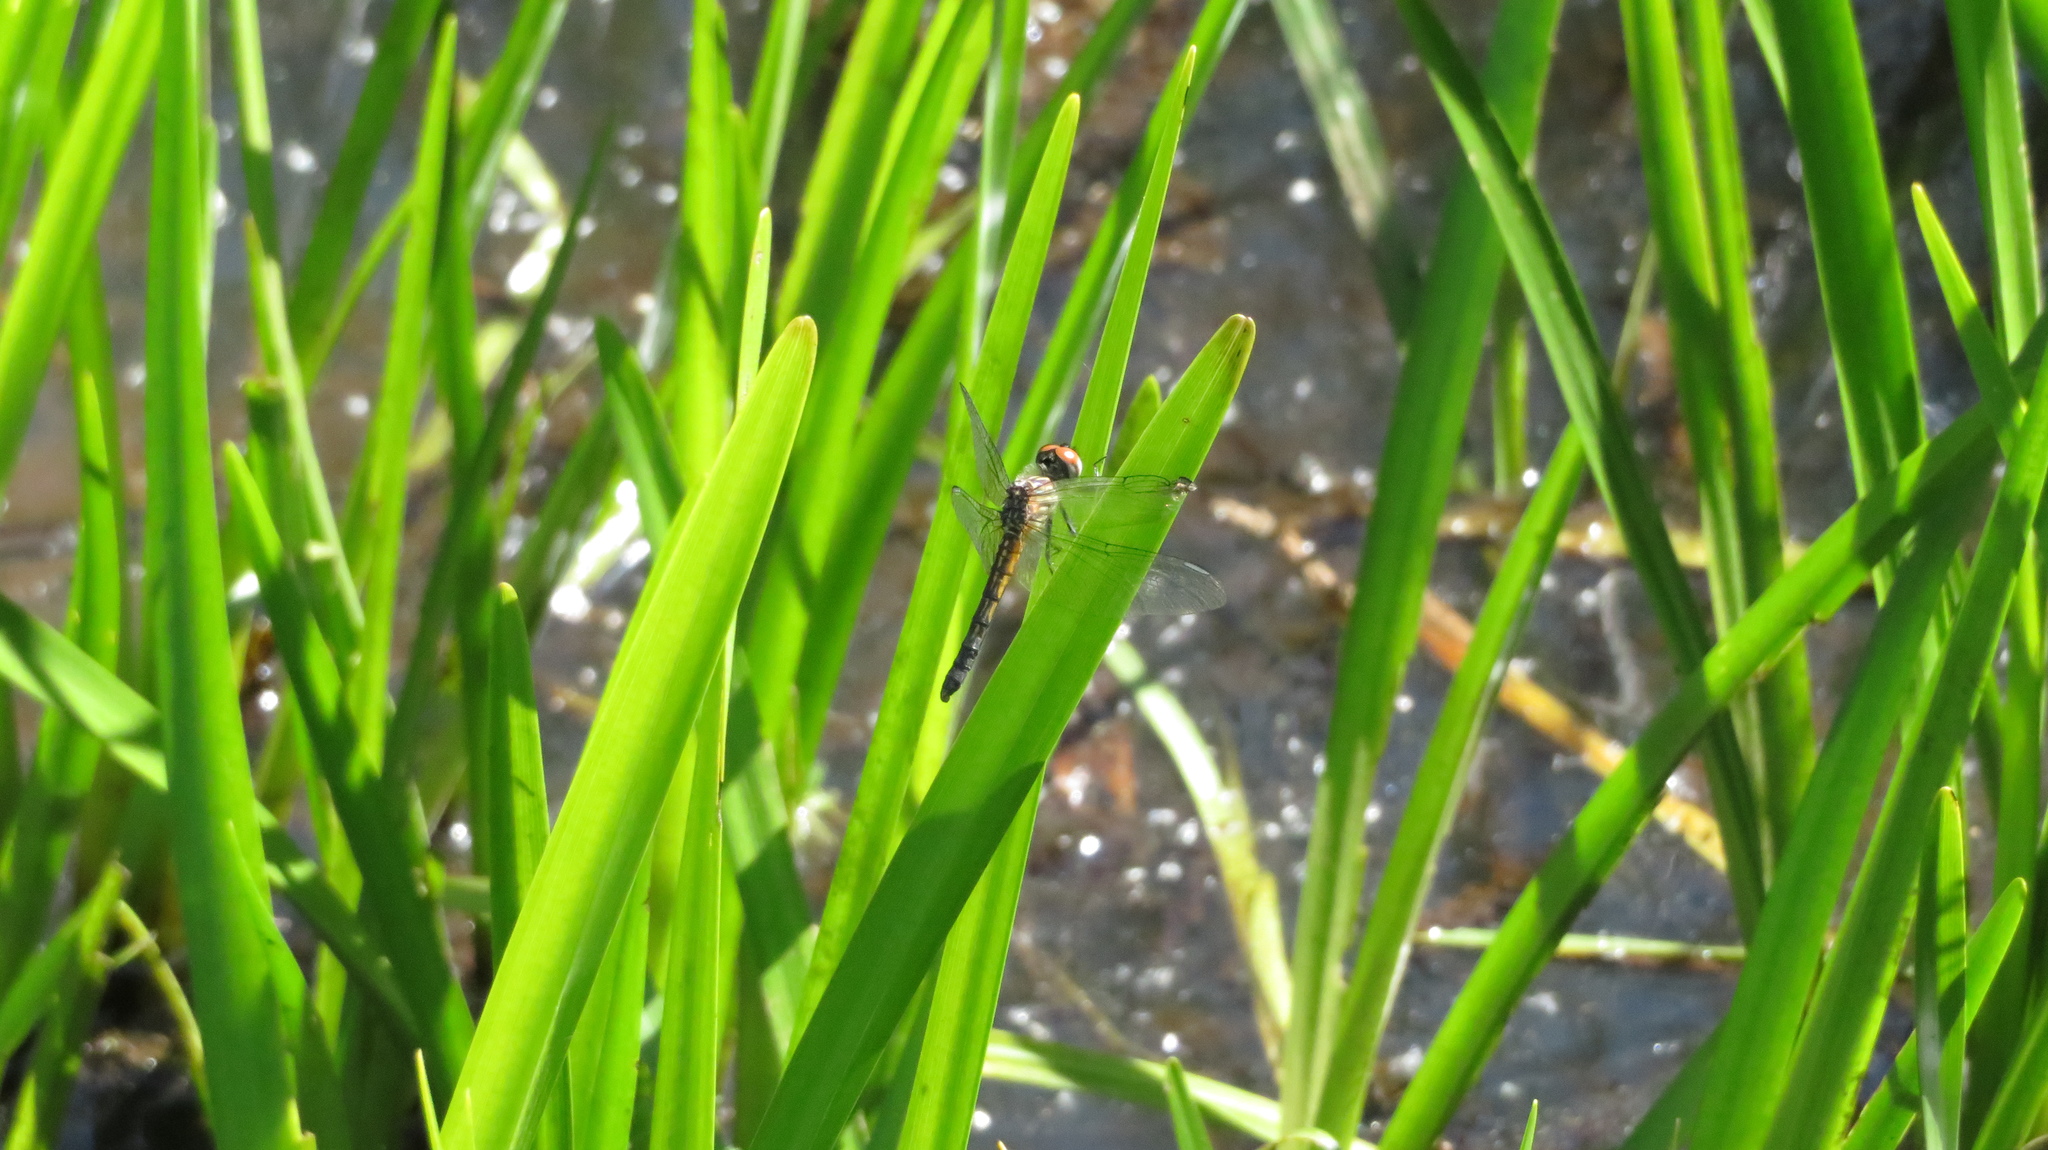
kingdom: Animalia
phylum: Arthropoda
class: Insecta
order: Odonata
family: Libellulidae
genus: Pachydiplax
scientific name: Pachydiplax longipennis
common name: Blue dasher
